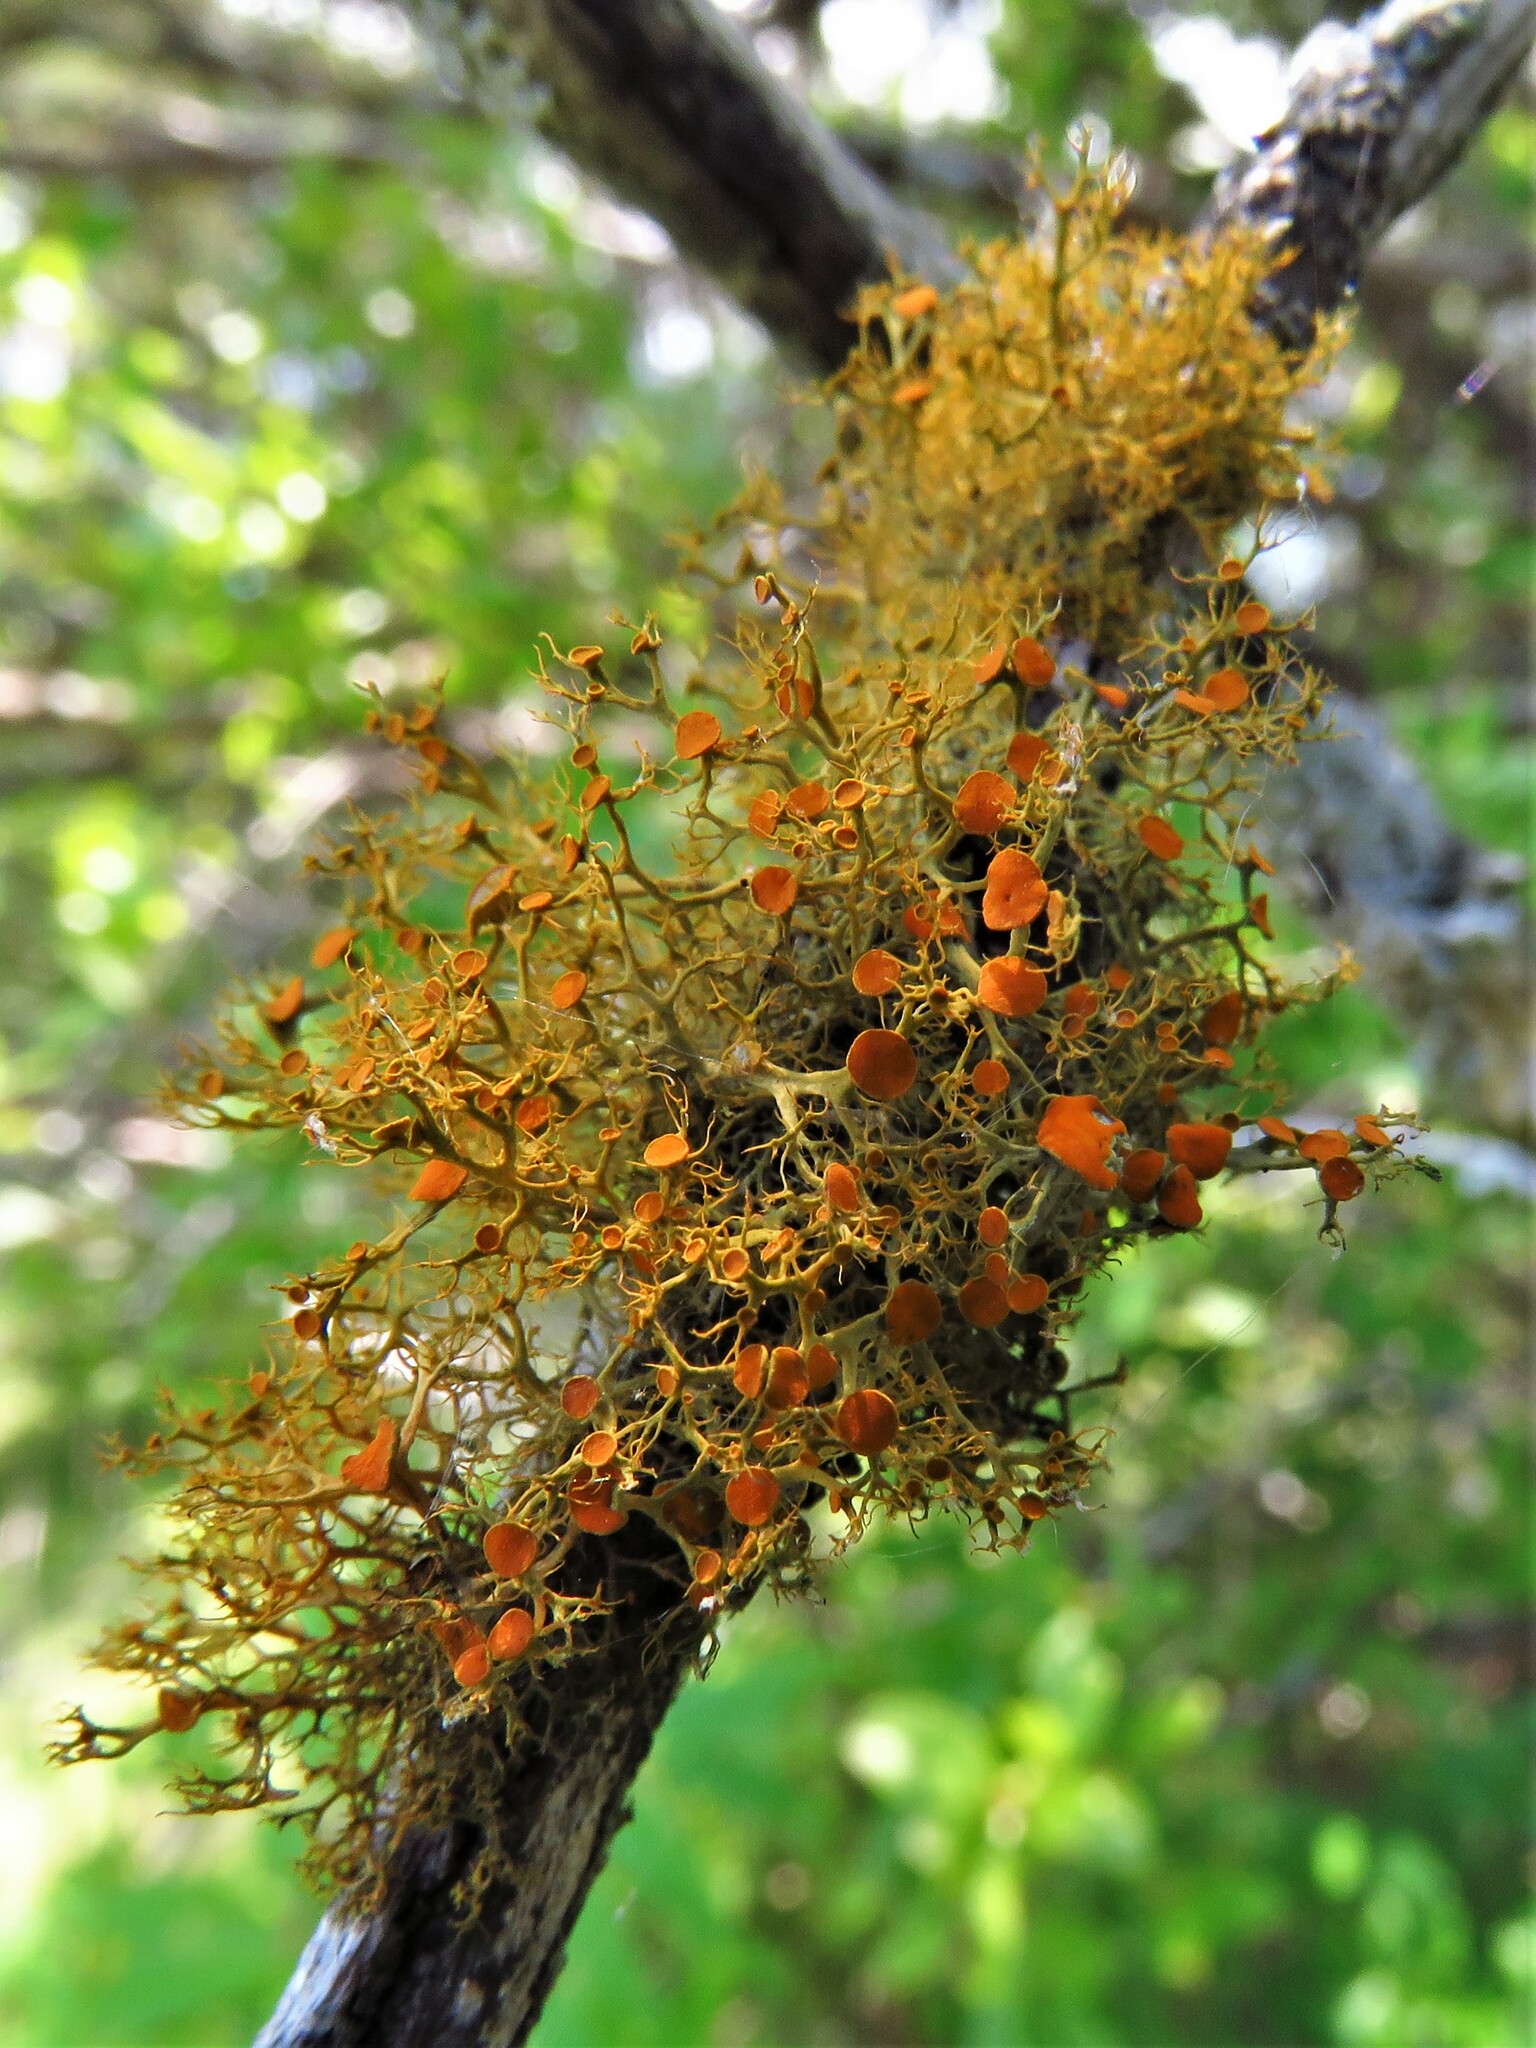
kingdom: Fungi
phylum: Ascomycota
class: Lecanoromycetes
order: Teloschistales
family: Teloschistaceae
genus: Teloschistes
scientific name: Teloschistes exilis
